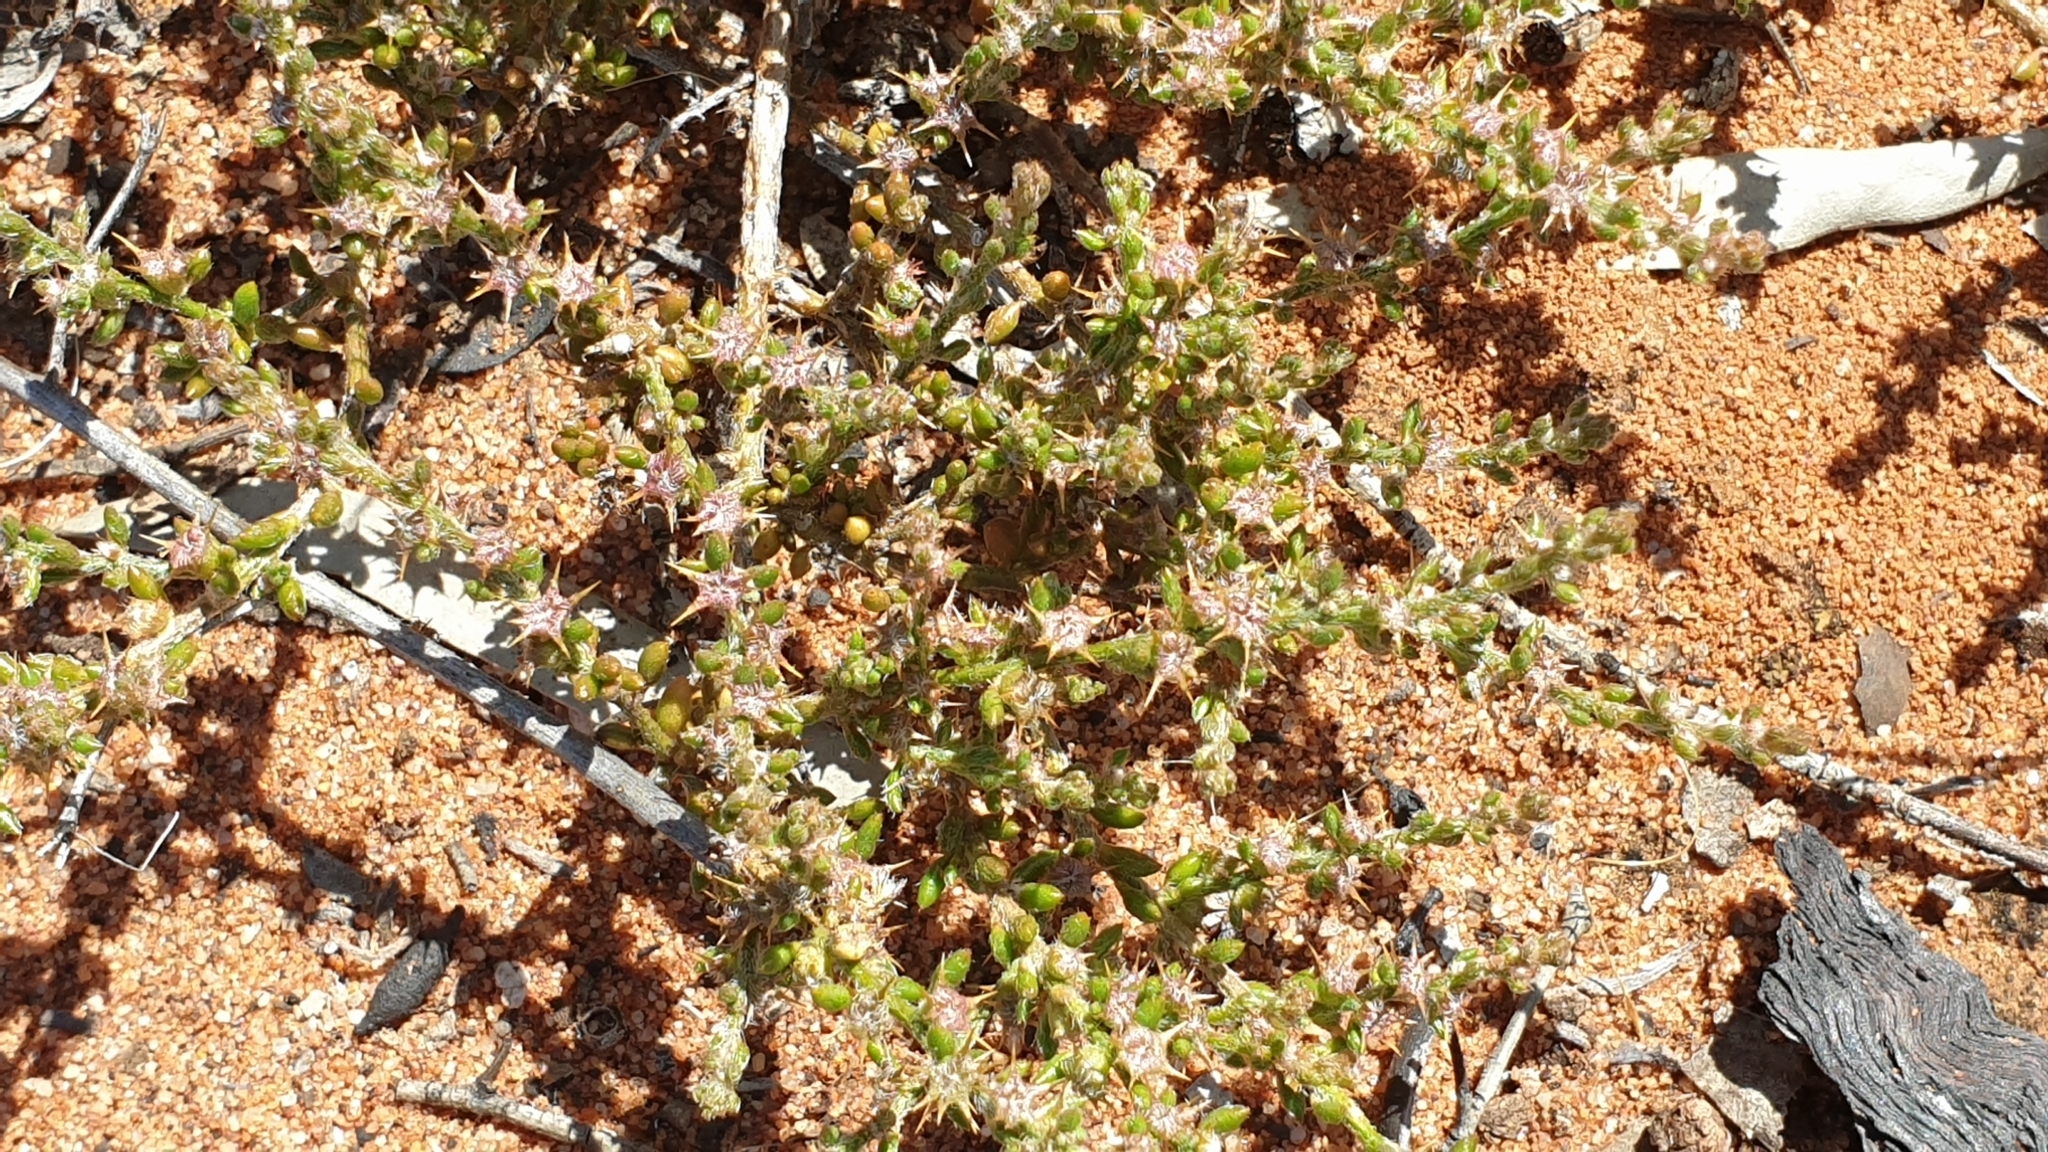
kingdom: Plantae
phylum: Tracheophyta
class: Magnoliopsida
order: Caryophyllales
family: Amaranthaceae
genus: Sclerolaena
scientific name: Sclerolaena parviflora
